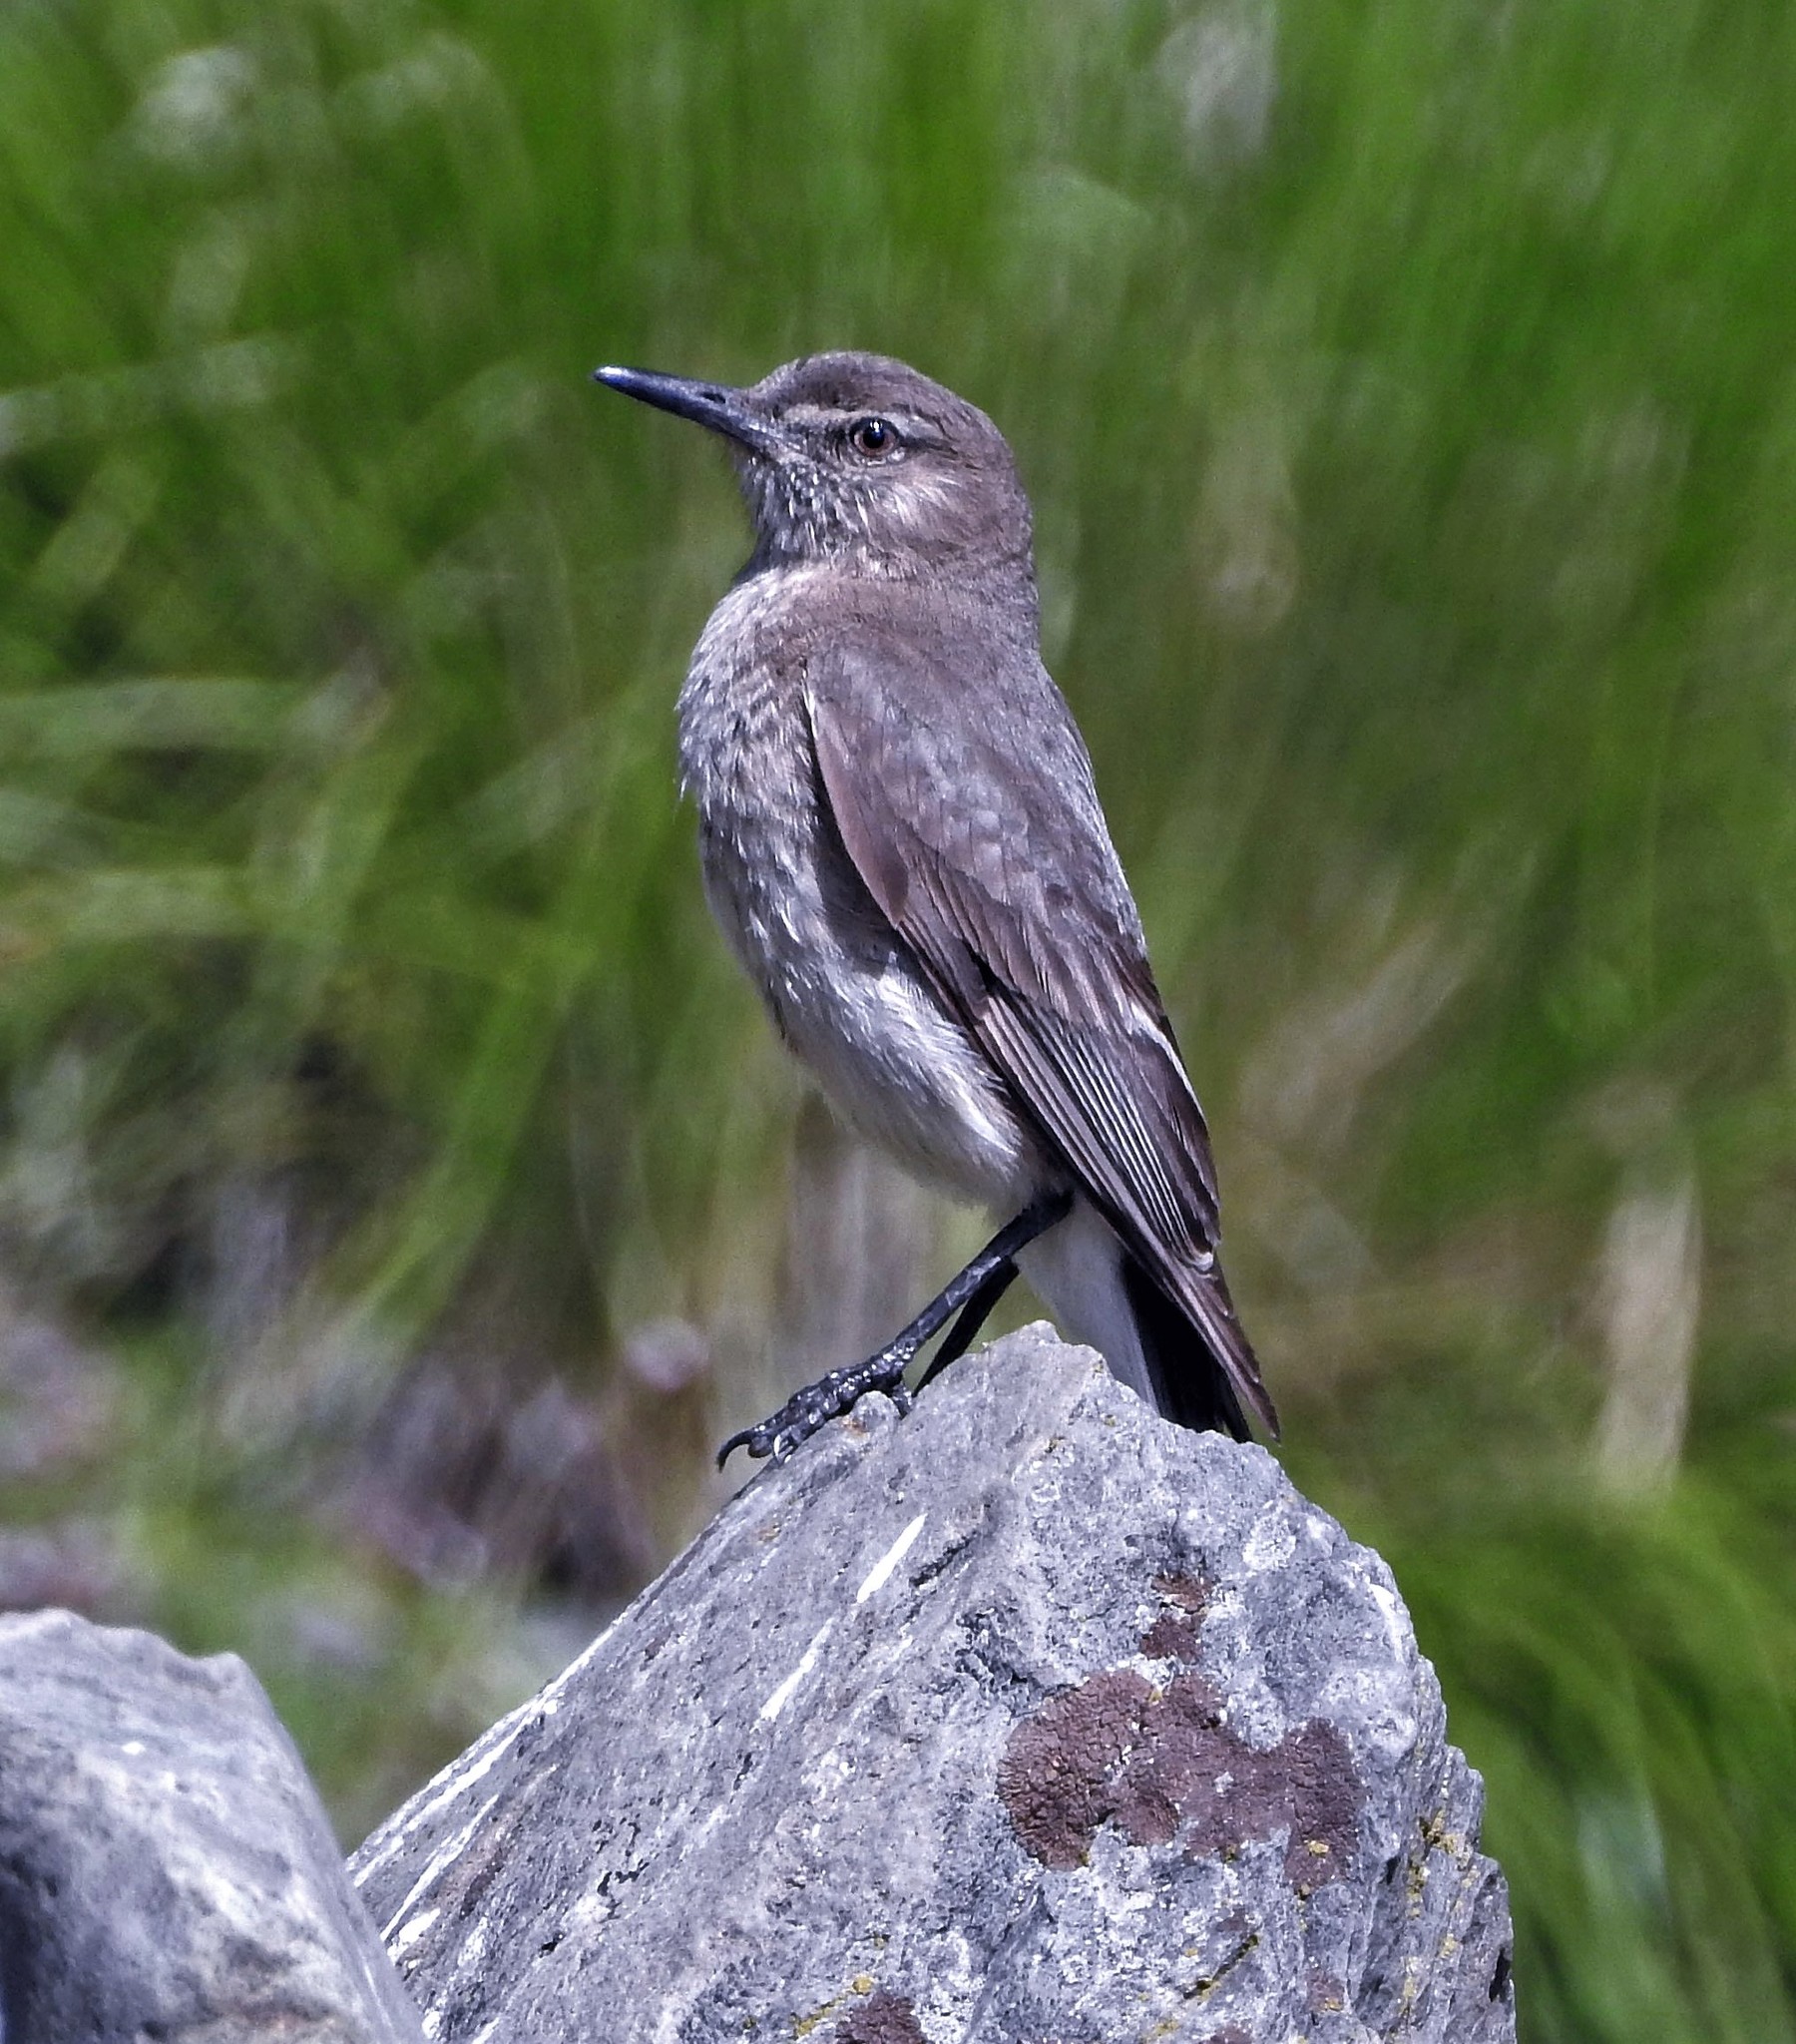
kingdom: Animalia
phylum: Chordata
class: Aves
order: Passeriformes
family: Tyrannidae
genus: Agriornis
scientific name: Agriornis montanus
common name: Black-billed shrike-tyrant
